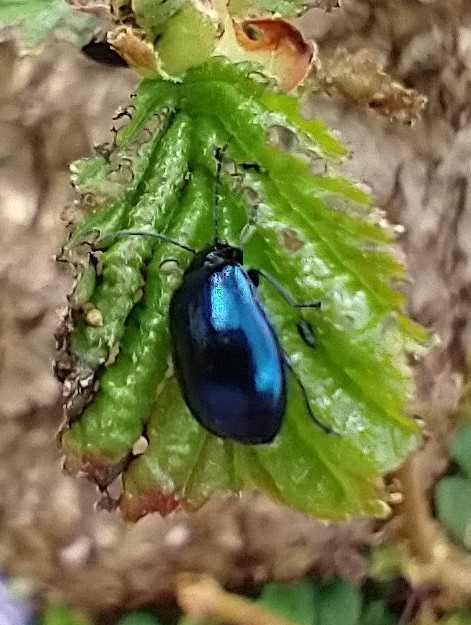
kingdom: Animalia
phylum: Arthropoda
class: Insecta
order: Coleoptera
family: Chrysomelidae
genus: Agelastica
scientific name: Agelastica alni
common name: Alder leaf beetle
